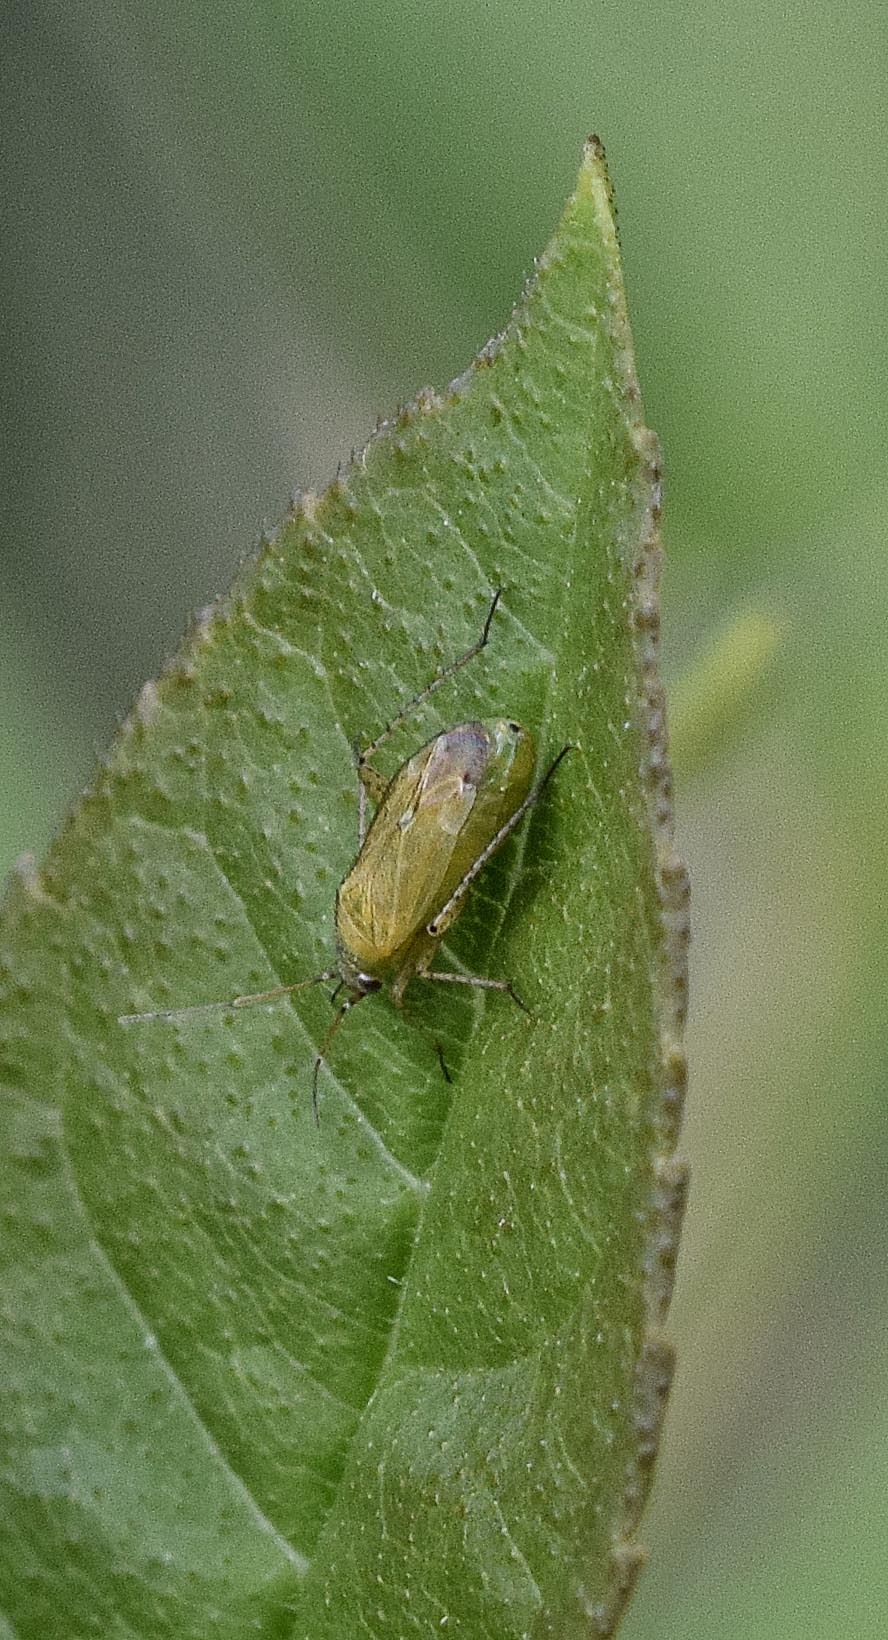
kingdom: Animalia
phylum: Arthropoda
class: Insecta
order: Hemiptera
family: Miridae
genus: Plagiognathus
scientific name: Plagiognathus chrysanthemi
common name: Plant bug
